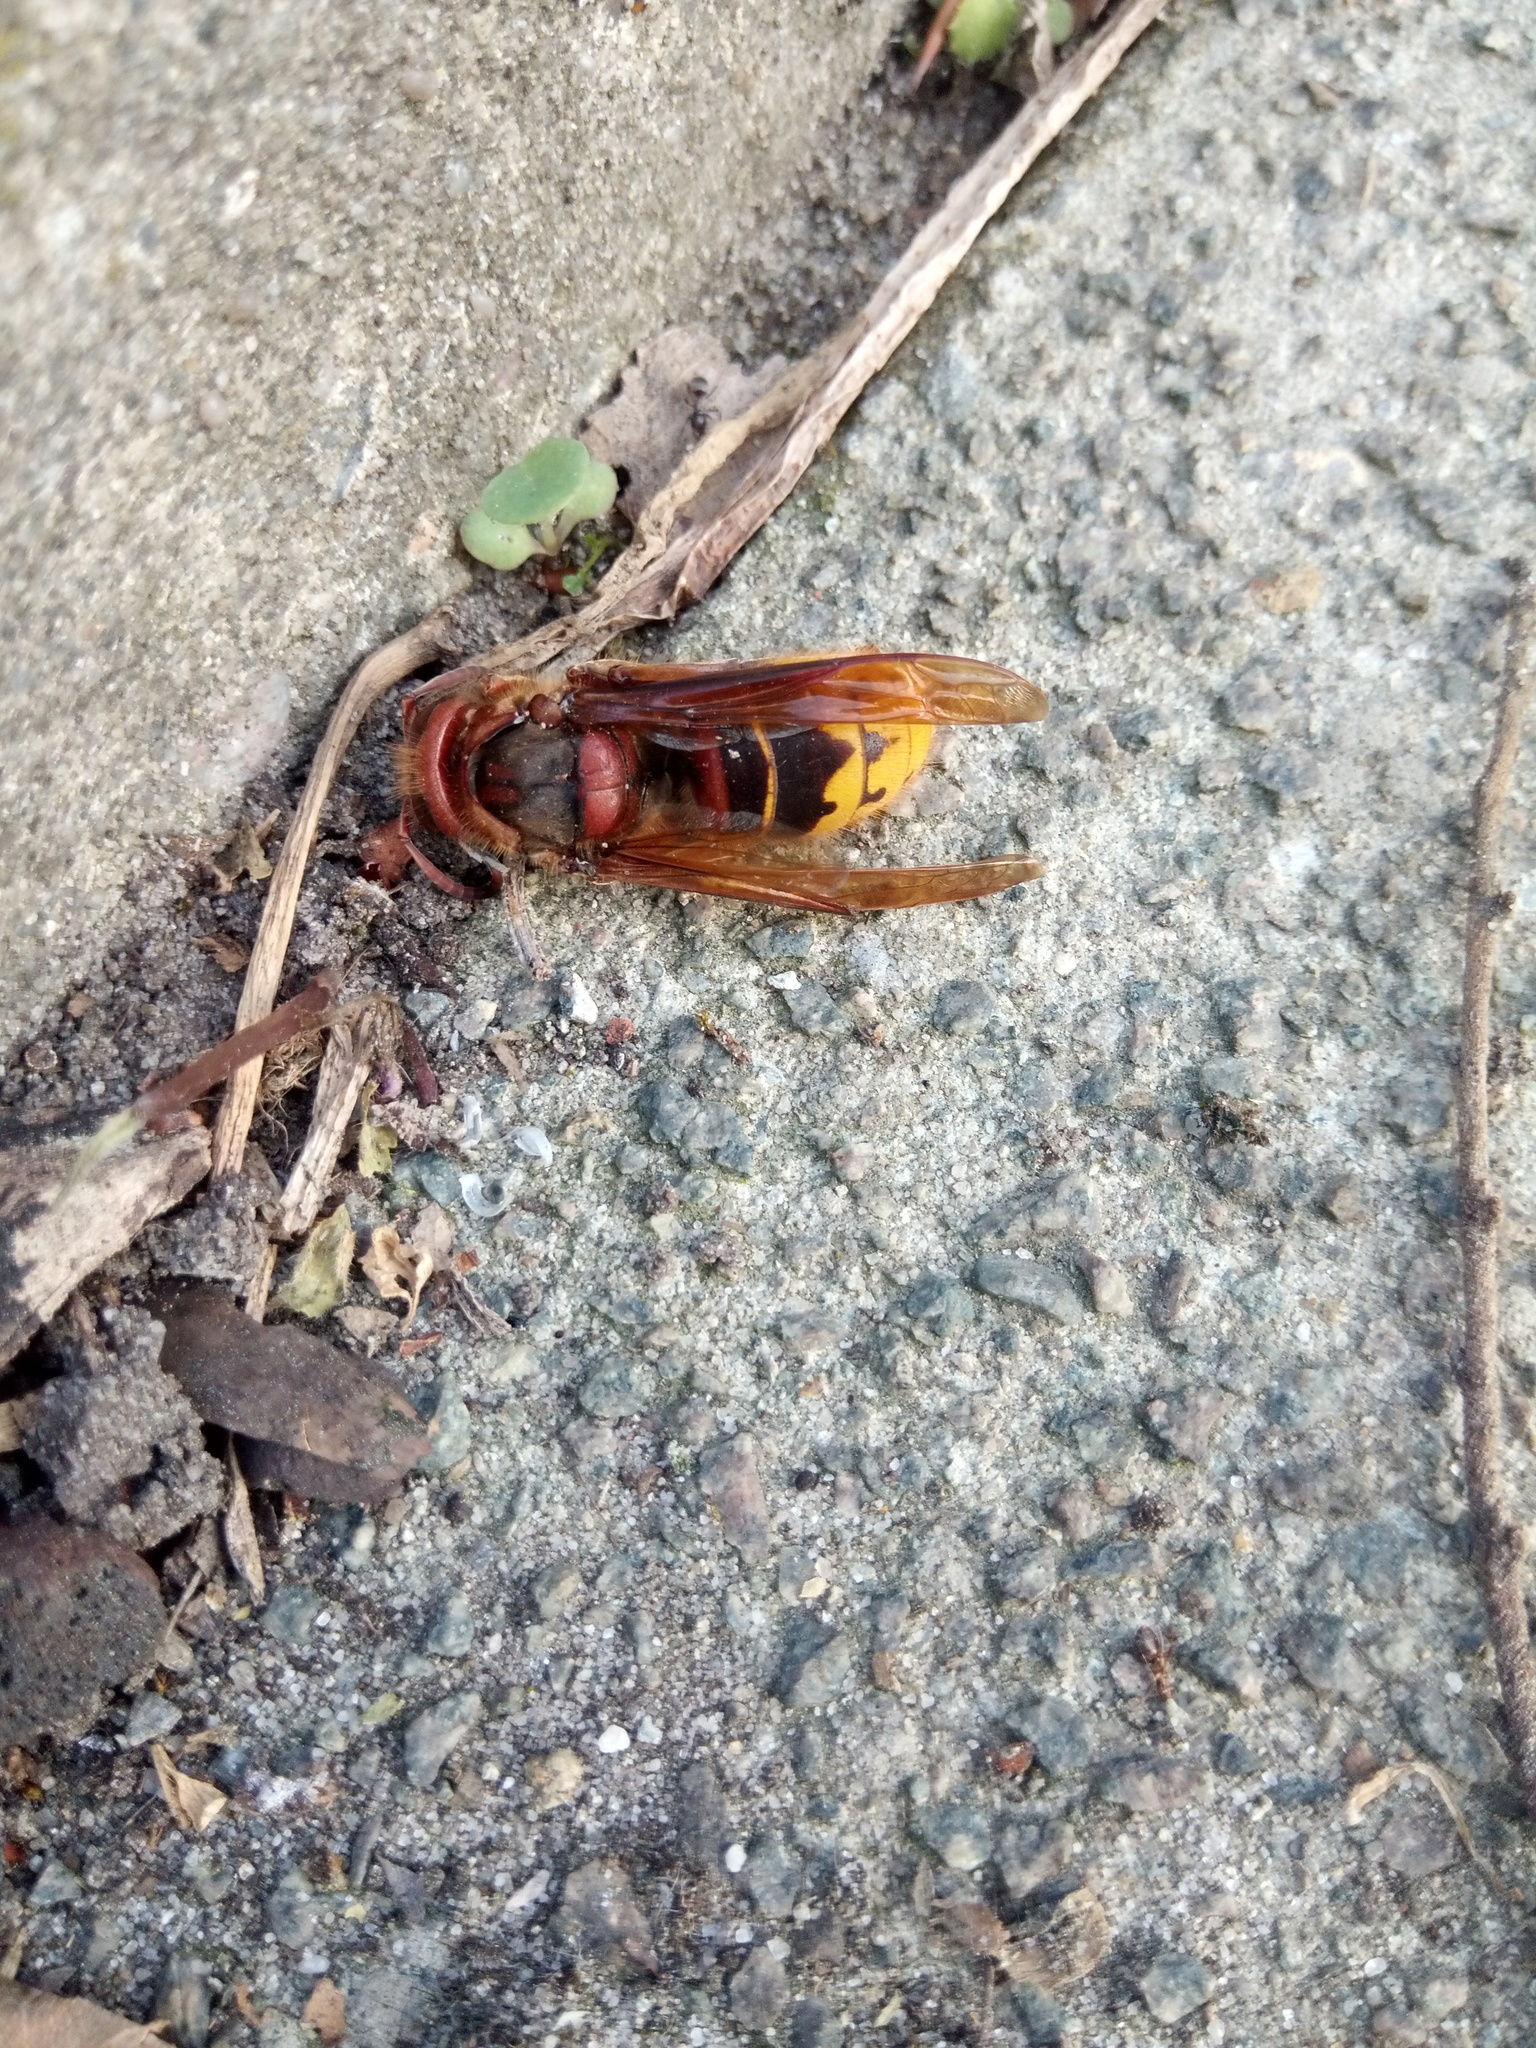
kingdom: Animalia
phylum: Arthropoda
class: Insecta
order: Hymenoptera
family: Vespidae
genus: Vespa
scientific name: Vespa crabro
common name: Hornet
